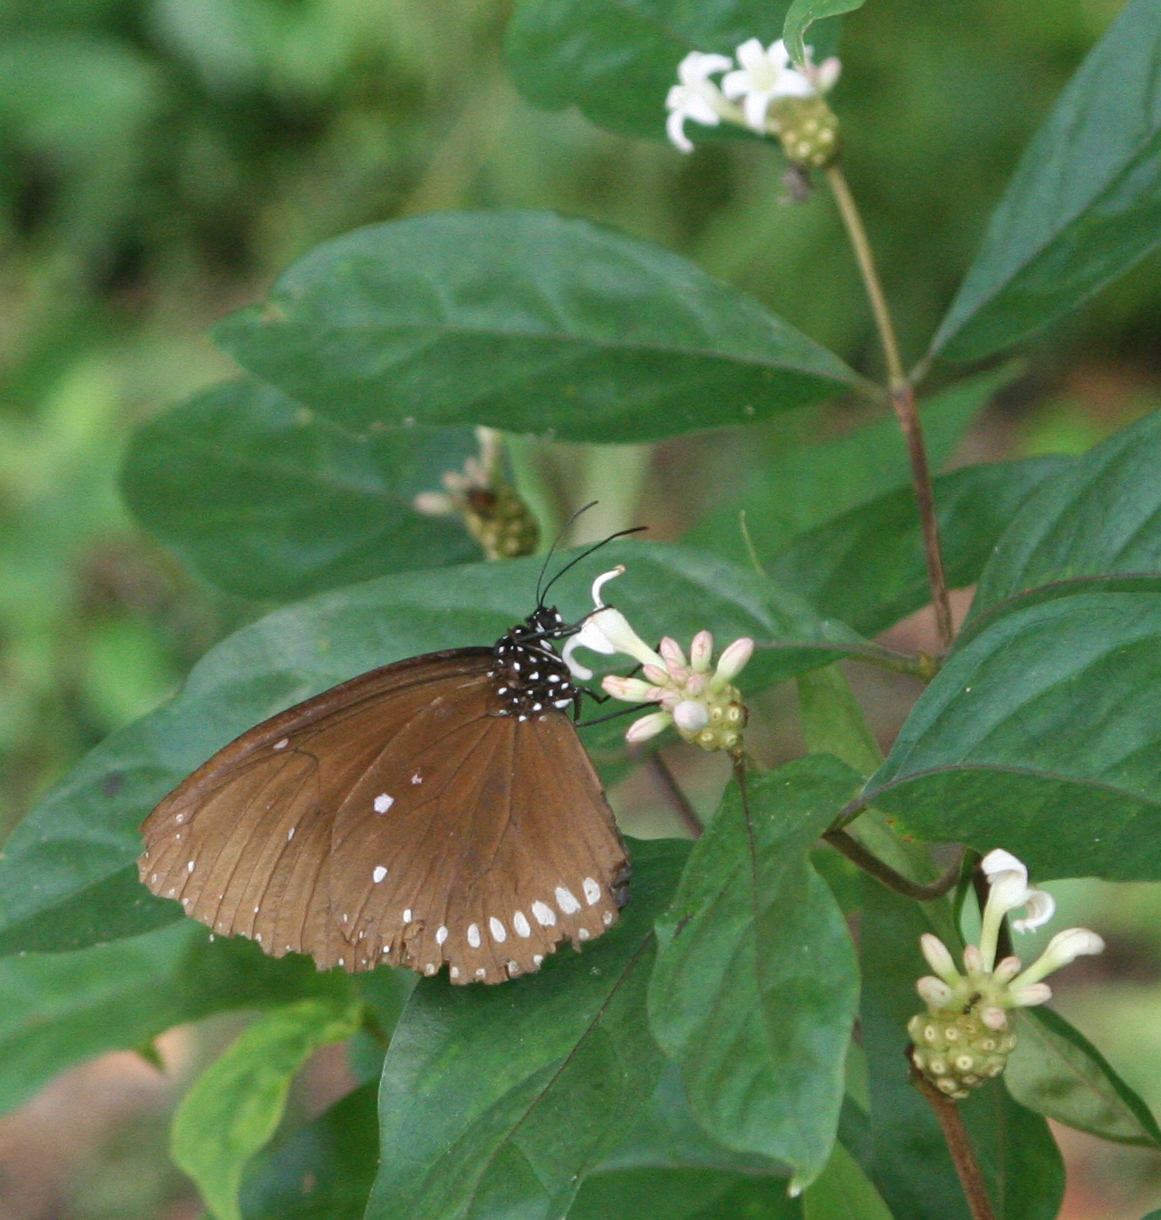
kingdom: Animalia
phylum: Arthropoda
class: Insecta
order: Lepidoptera
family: Nymphalidae
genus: Euploea
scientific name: Euploea klugii
